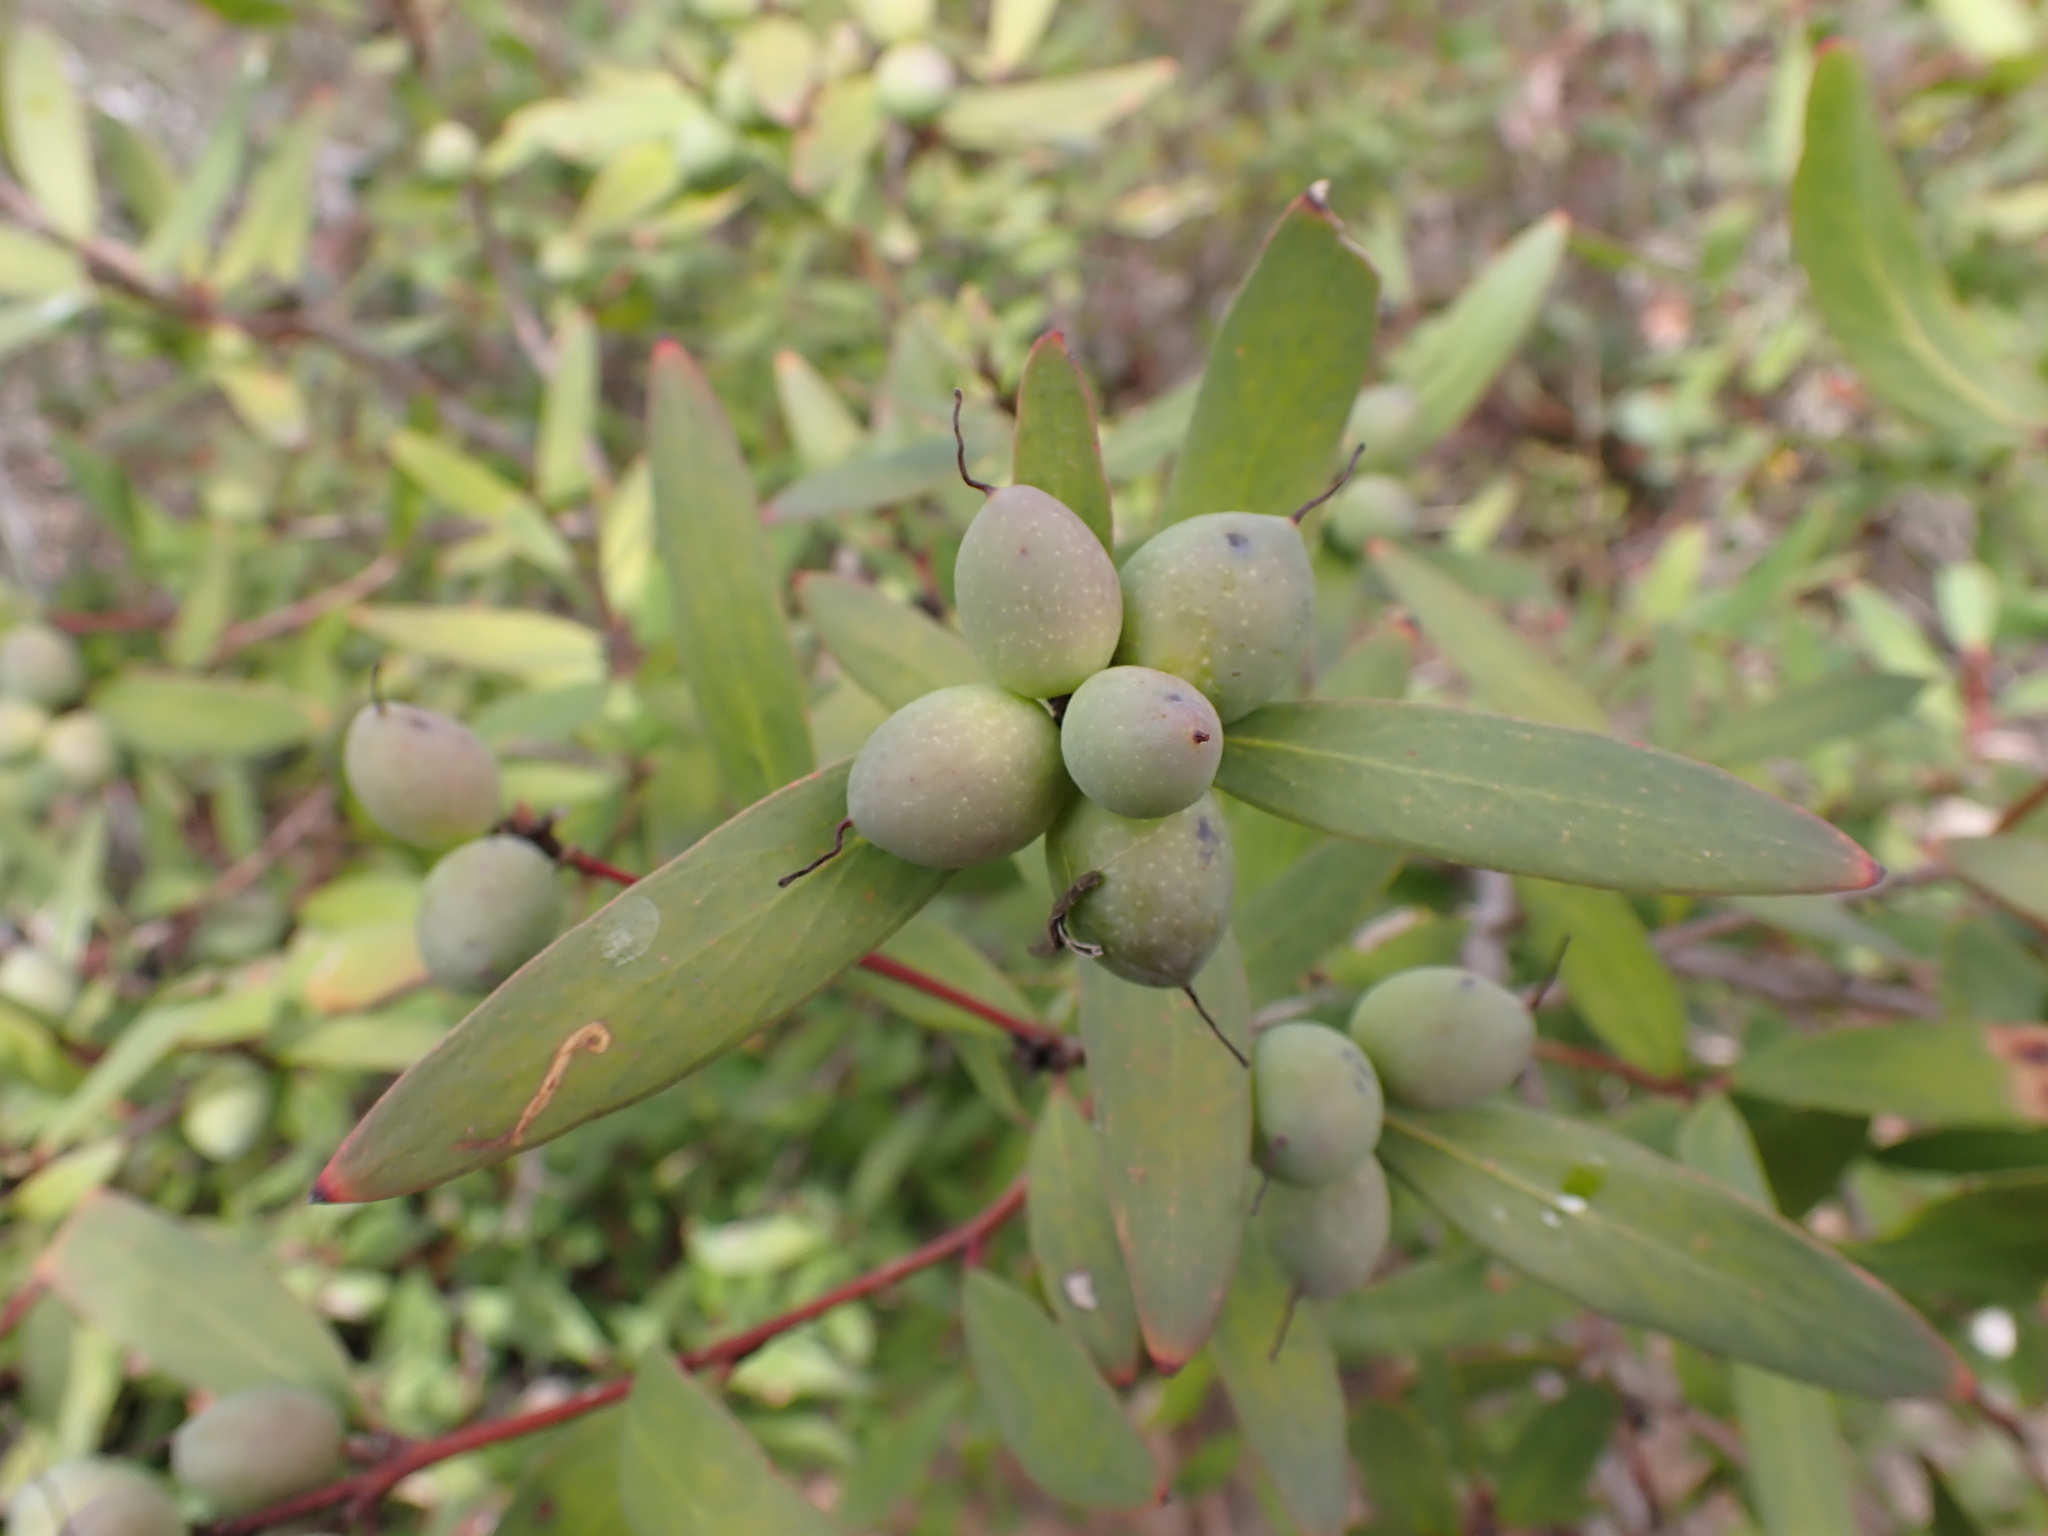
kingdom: Plantae
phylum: Tracheophyta
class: Magnoliopsida
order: Proteales
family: Proteaceae
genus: Persoonia
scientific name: Persoonia confertifolia
